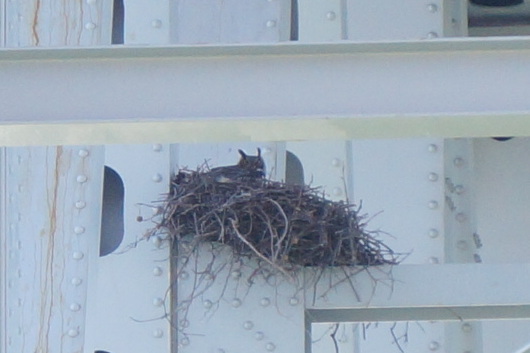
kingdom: Animalia
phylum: Chordata
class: Aves
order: Strigiformes
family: Strigidae
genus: Bubo
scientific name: Bubo virginianus
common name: Great horned owl
